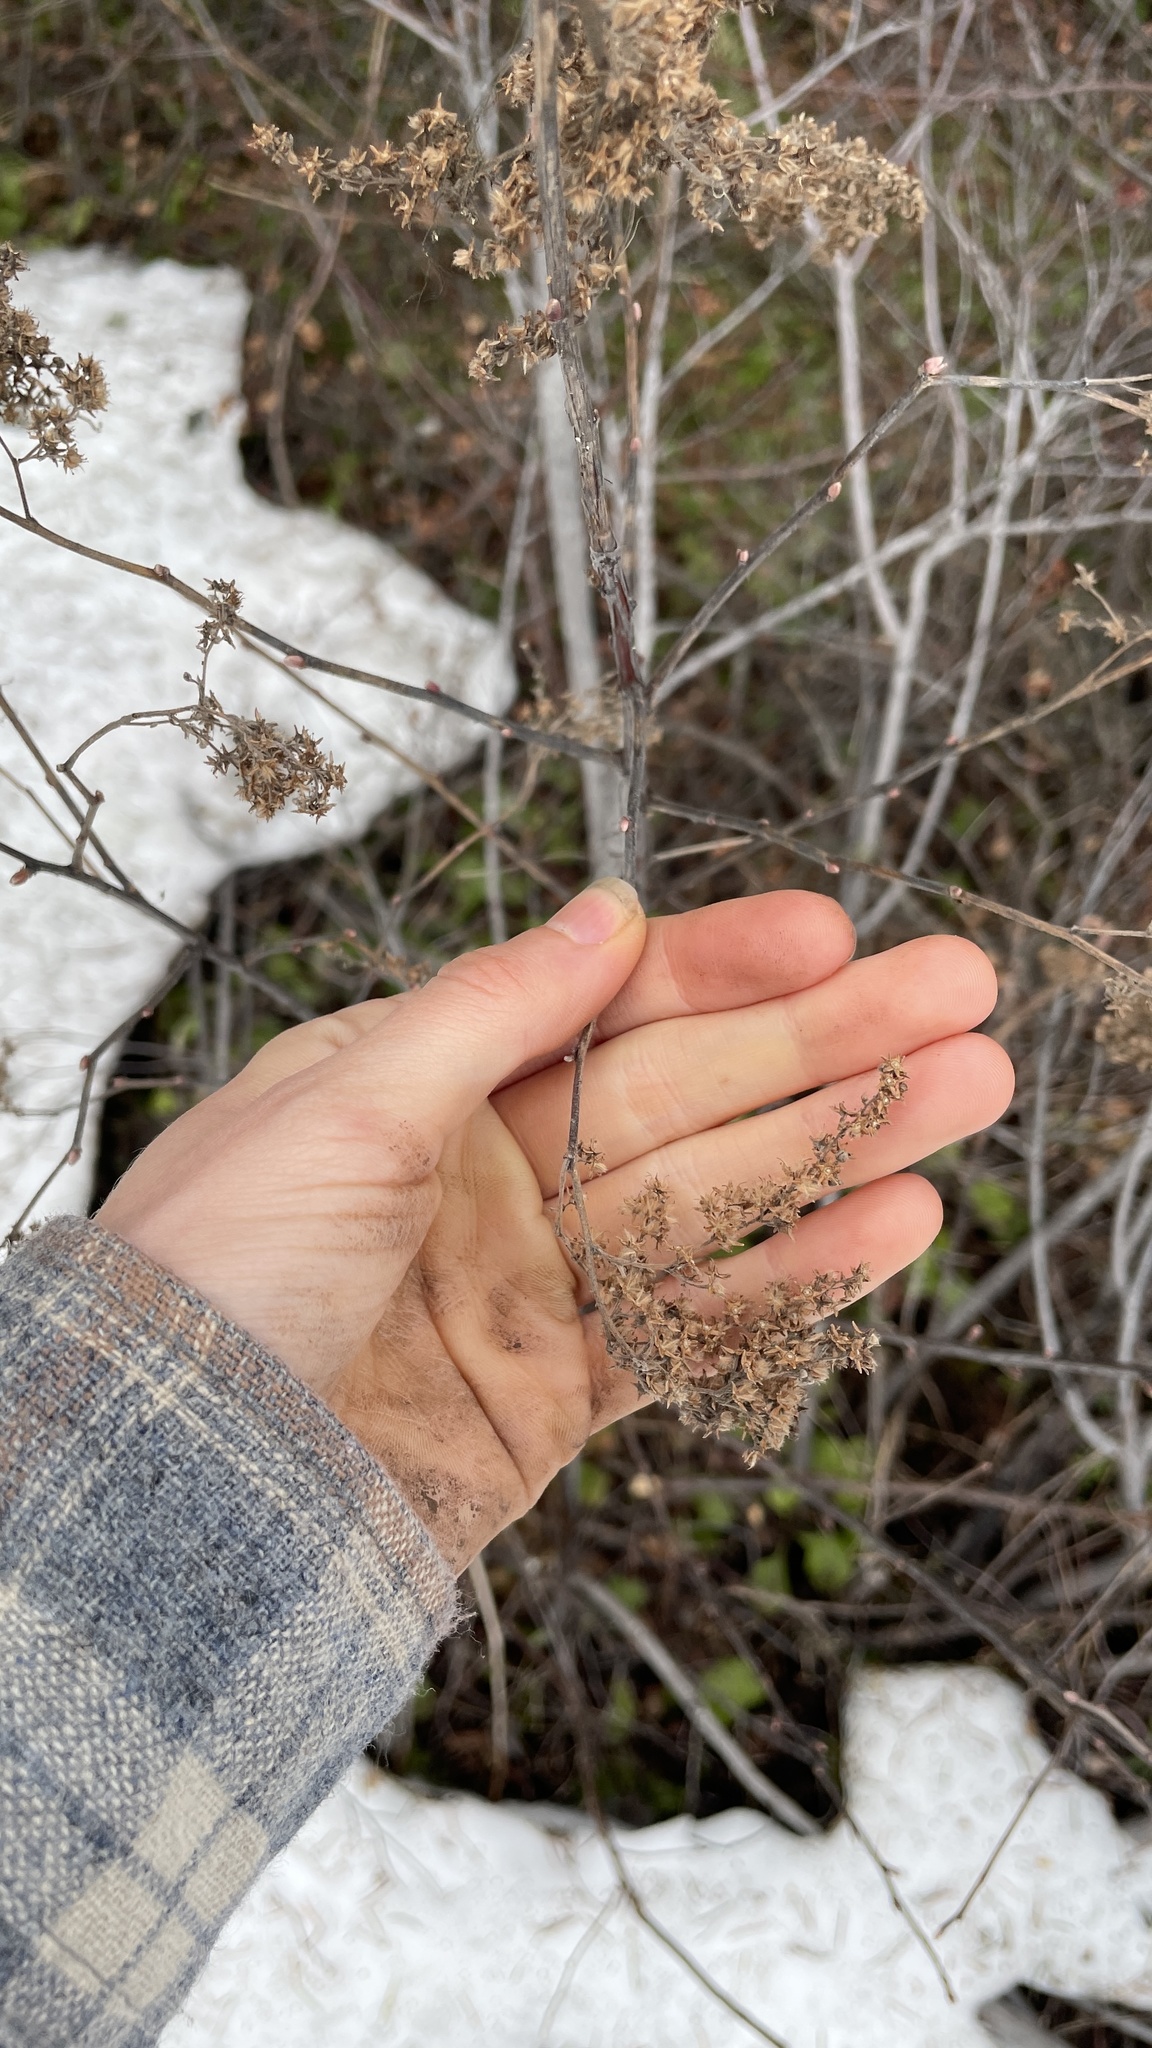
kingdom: Plantae
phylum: Tracheophyta
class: Magnoliopsida
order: Rosales
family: Rosaceae
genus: Holodiscus
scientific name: Holodiscus discolor
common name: Oceanspray
